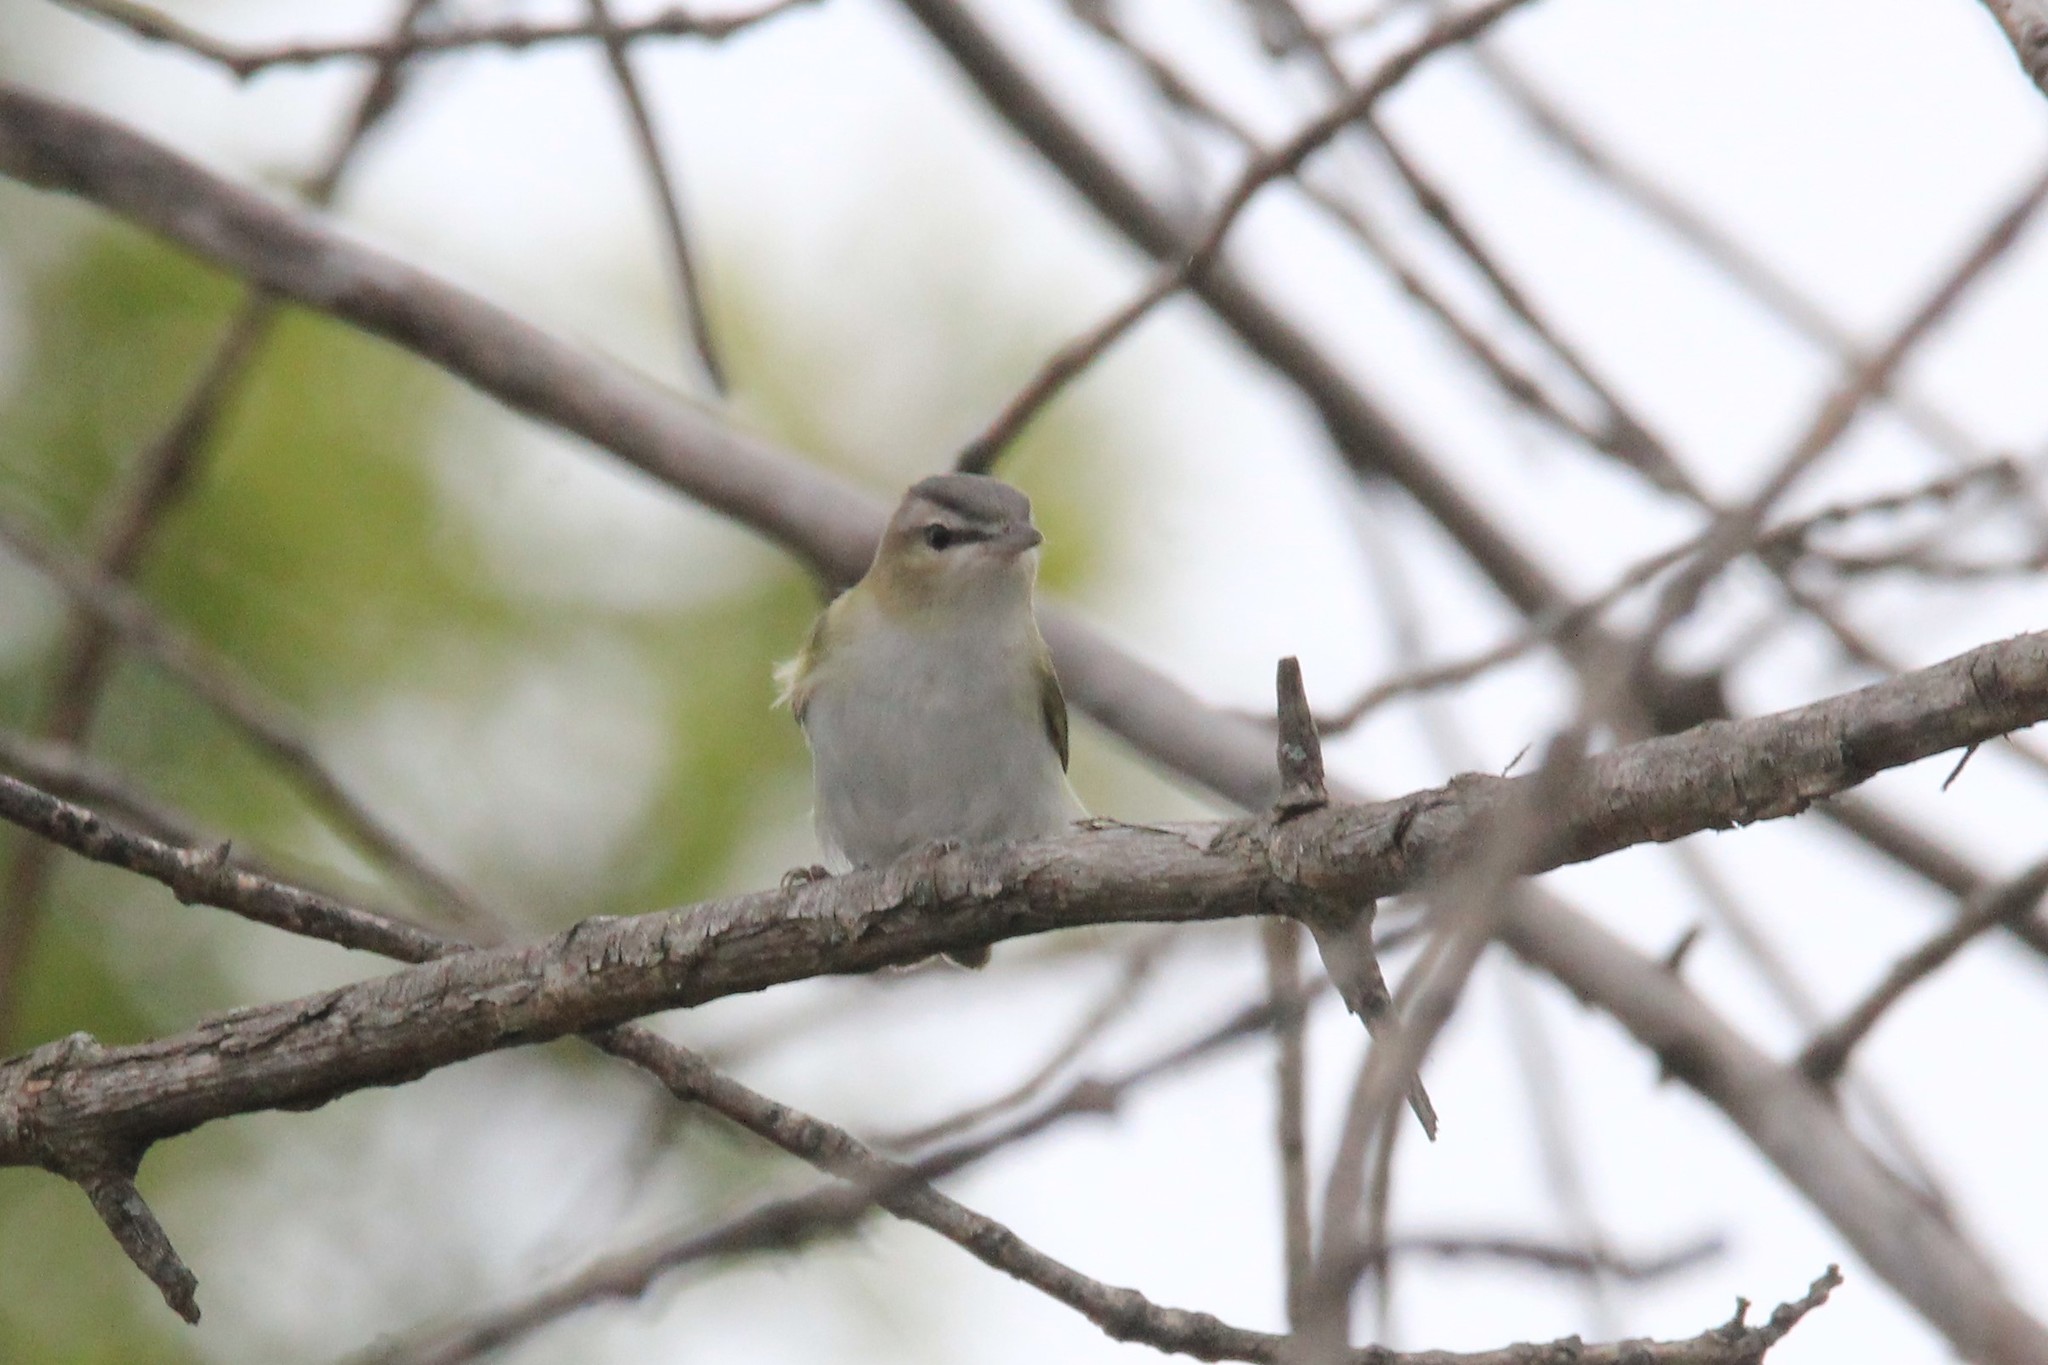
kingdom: Animalia
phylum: Chordata
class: Aves
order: Passeriformes
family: Vireonidae
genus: Vireo
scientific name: Vireo olivaceus
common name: Red-eyed vireo
